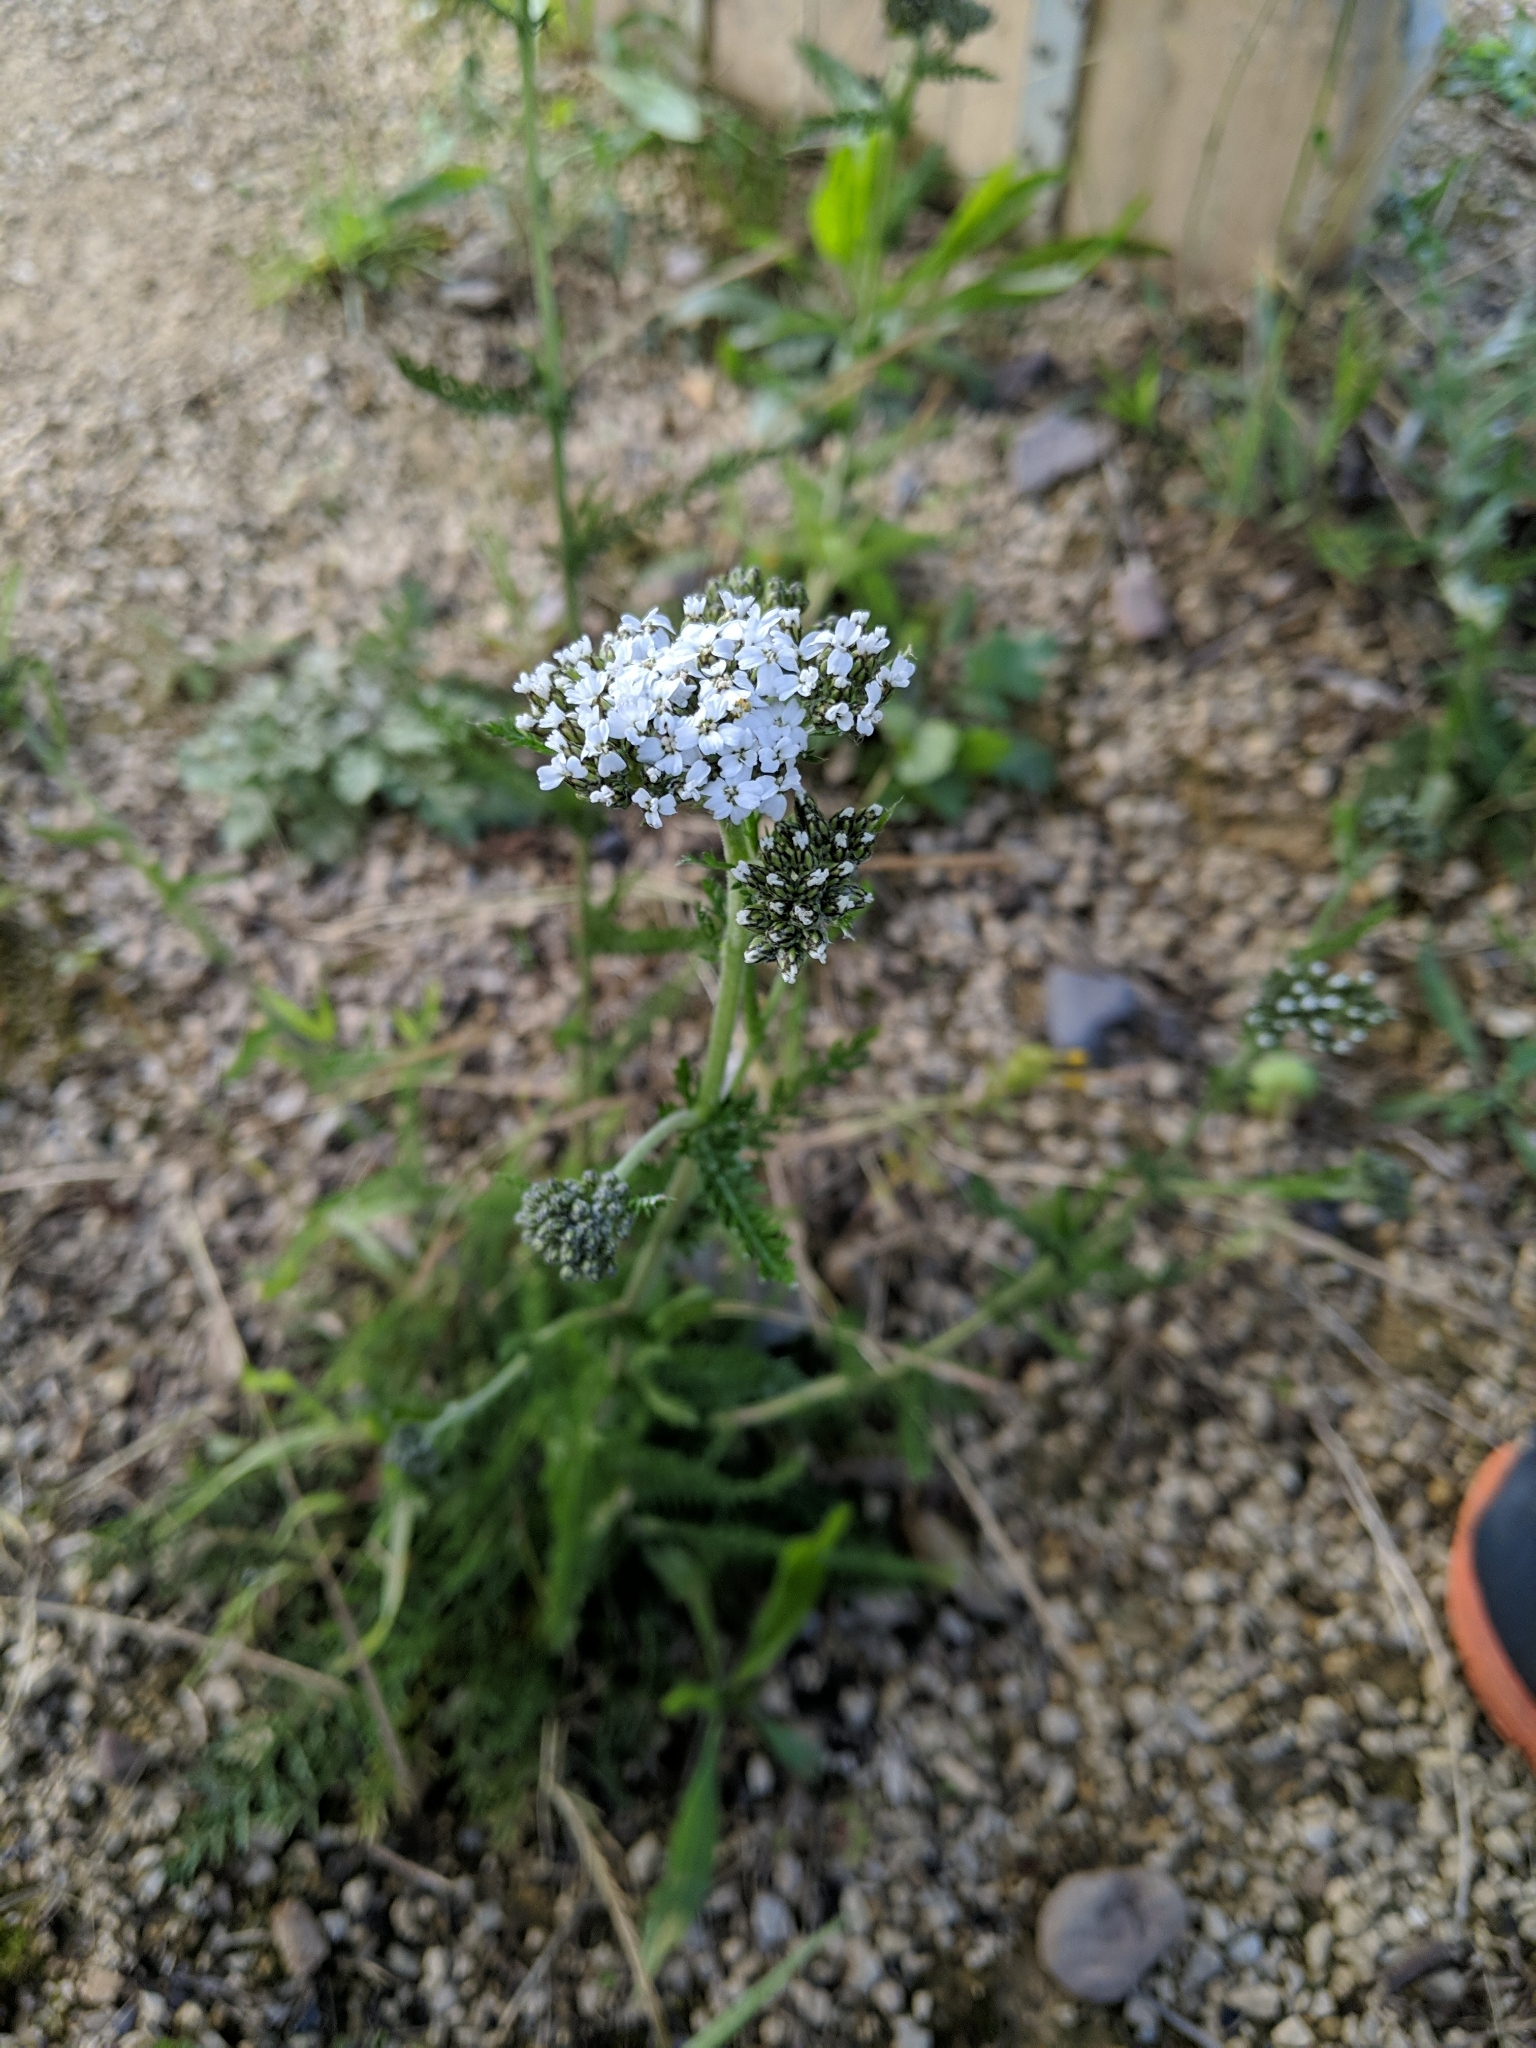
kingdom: Plantae
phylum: Tracheophyta
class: Magnoliopsida
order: Asterales
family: Asteraceae
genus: Achillea
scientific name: Achillea millefolium
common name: Yarrow
